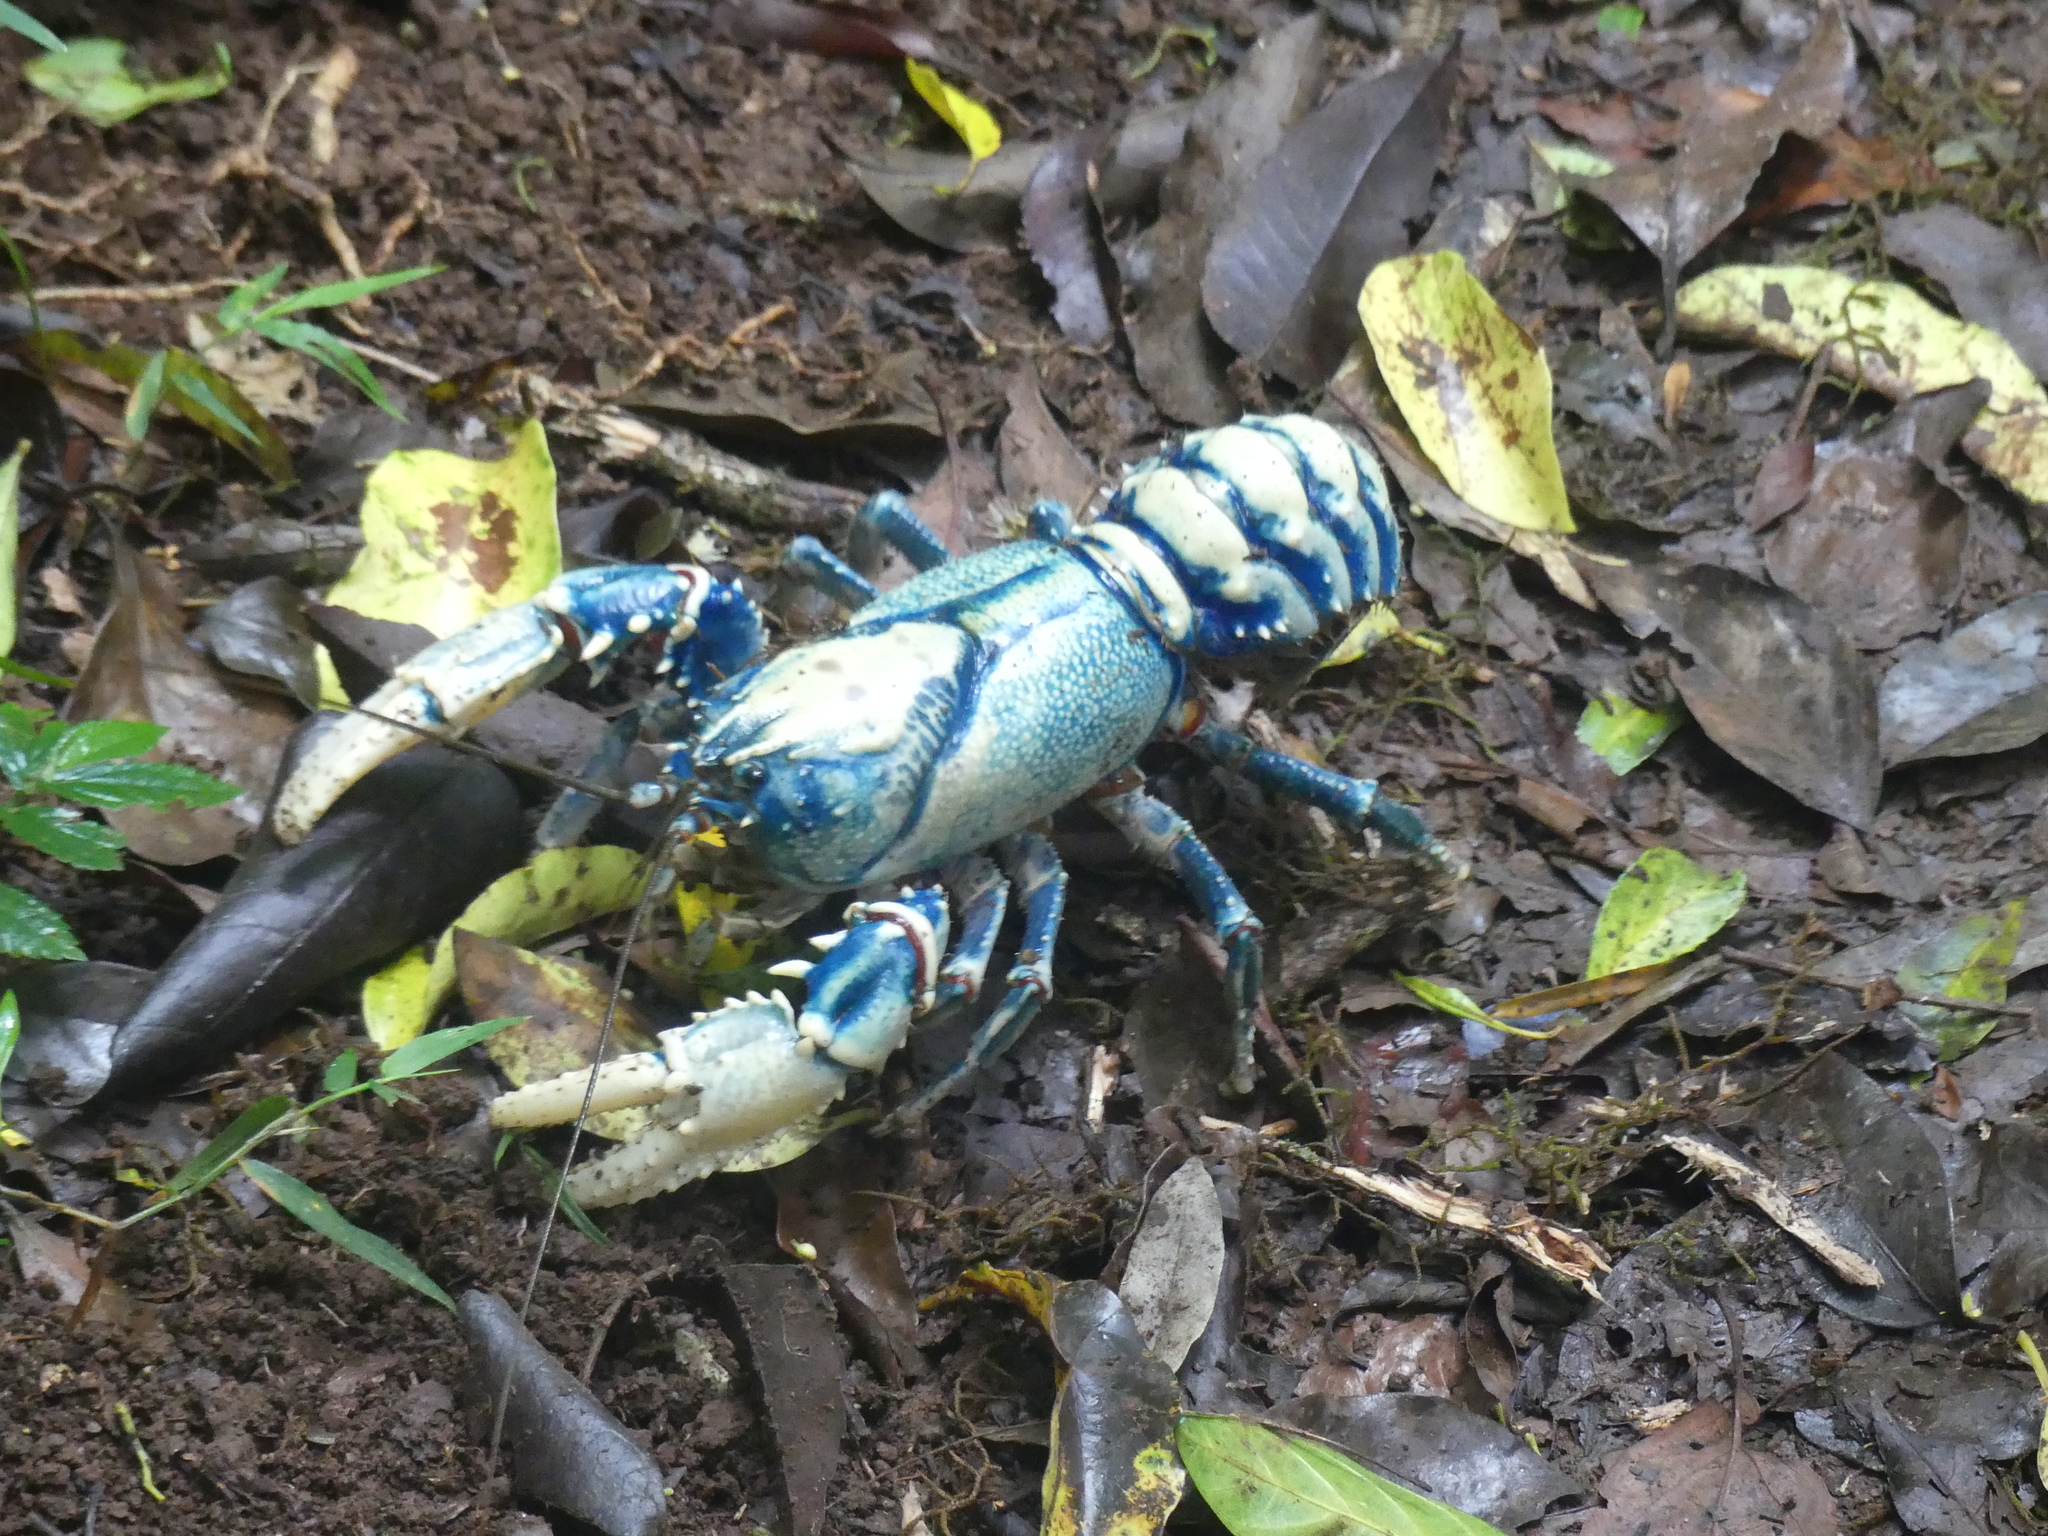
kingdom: Animalia
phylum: Arthropoda
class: Malacostraca
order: Decapoda
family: Parastacidae
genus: Euastacus
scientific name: Euastacus sulcatus
